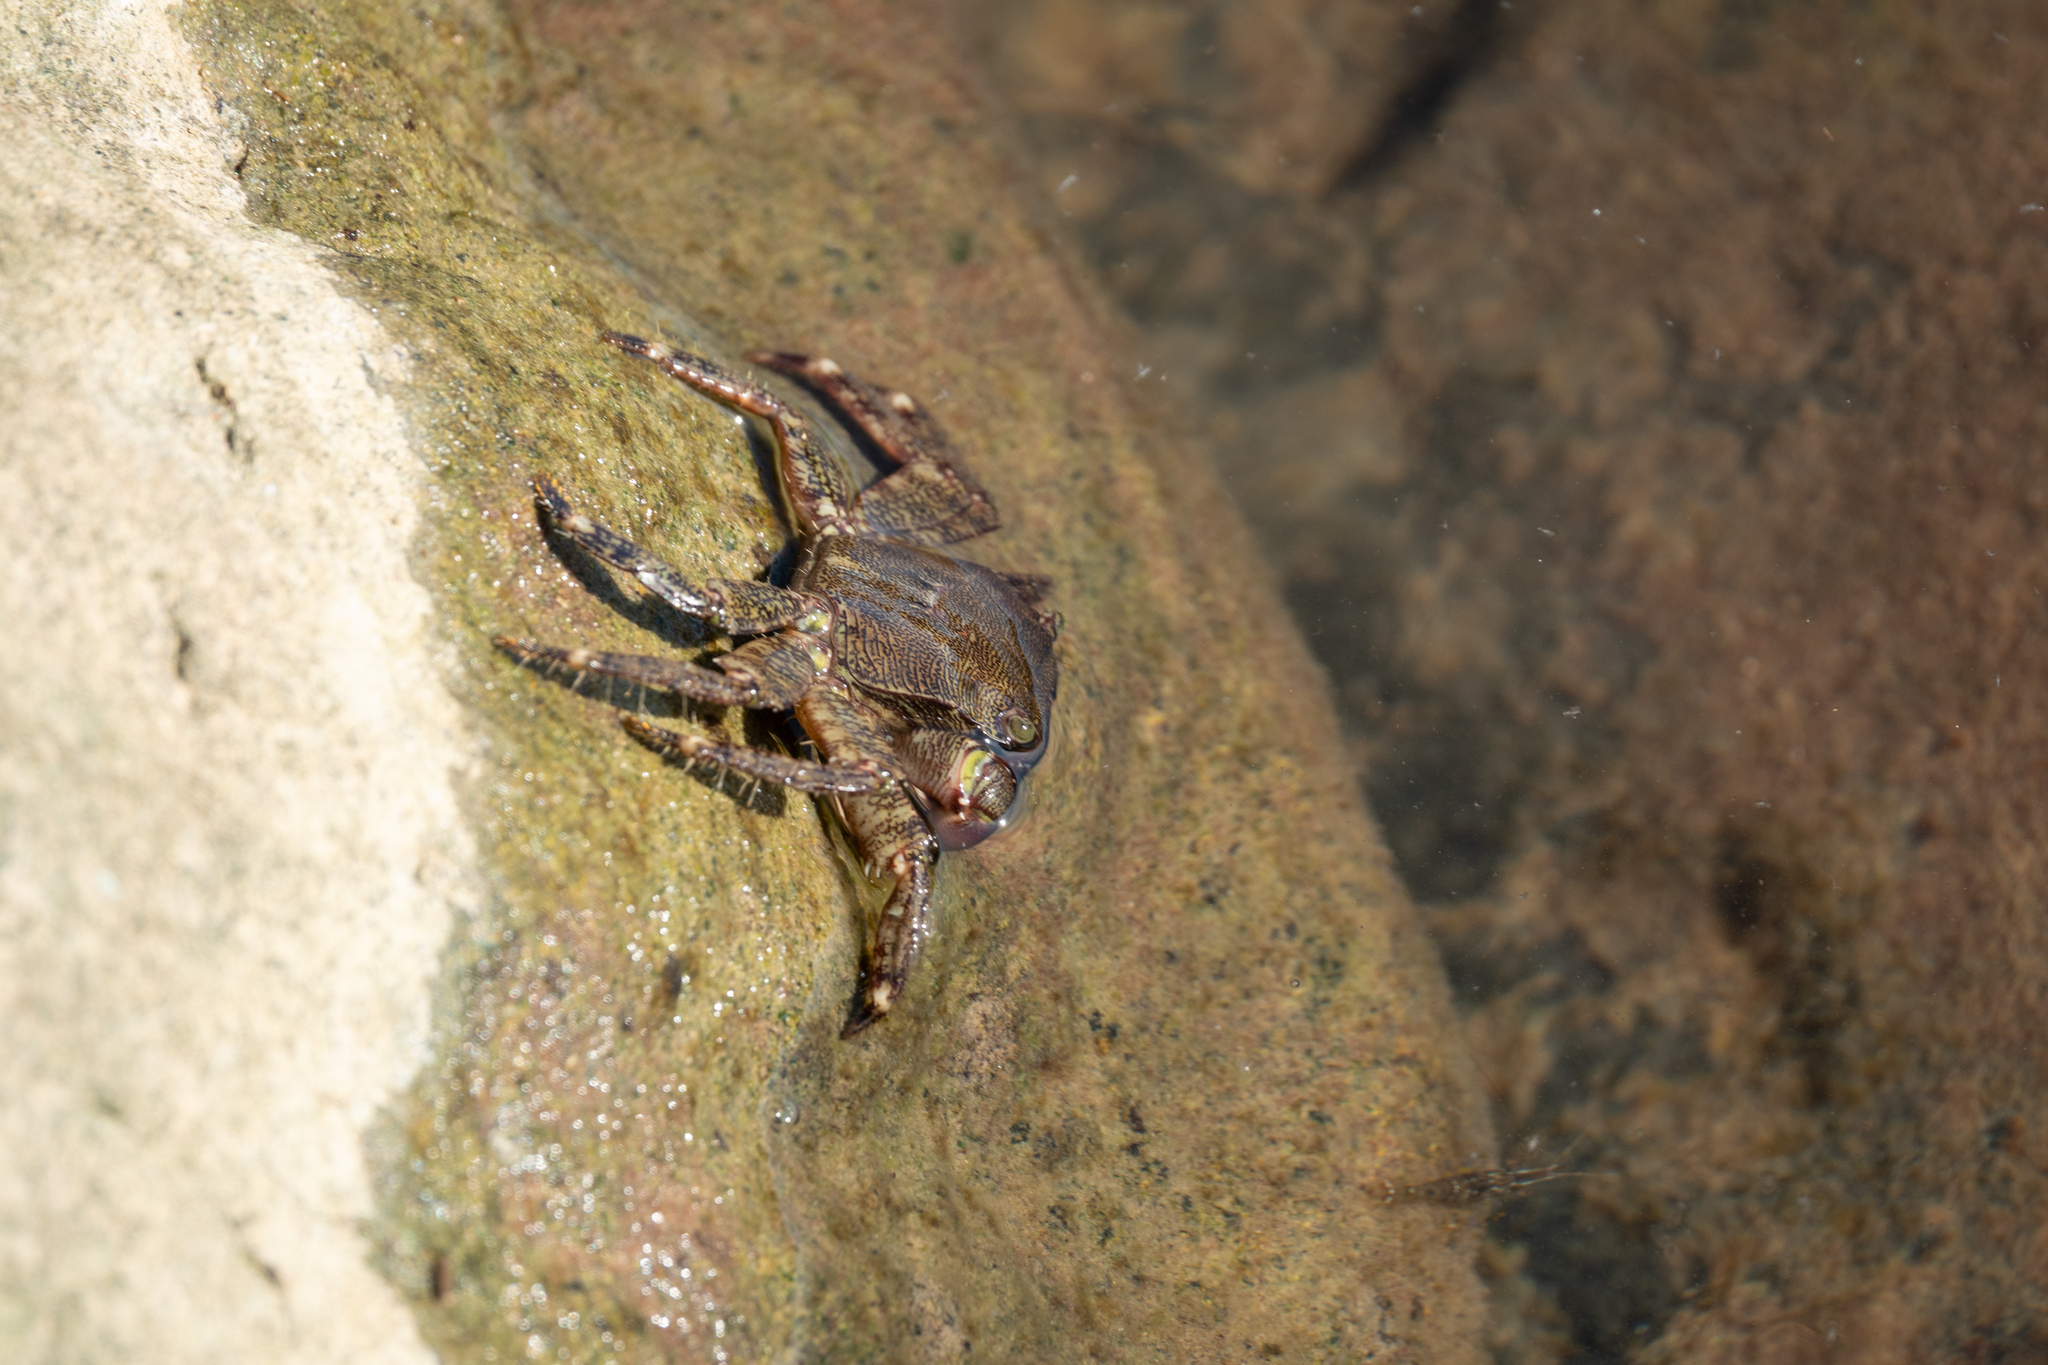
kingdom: Animalia
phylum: Arthropoda
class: Malacostraca
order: Decapoda
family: Grapsidae
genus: Pachygrapsus
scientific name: Pachygrapsus marmoratus
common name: Marbled rock crab
